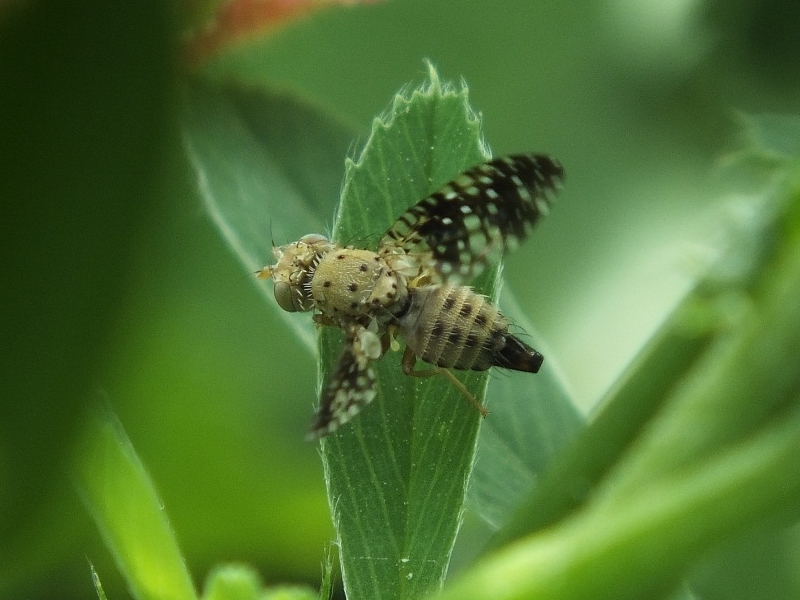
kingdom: Animalia
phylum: Arthropoda
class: Insecta
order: Diptera
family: Tephritidae
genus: Acinia
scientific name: Acinia biflexa
